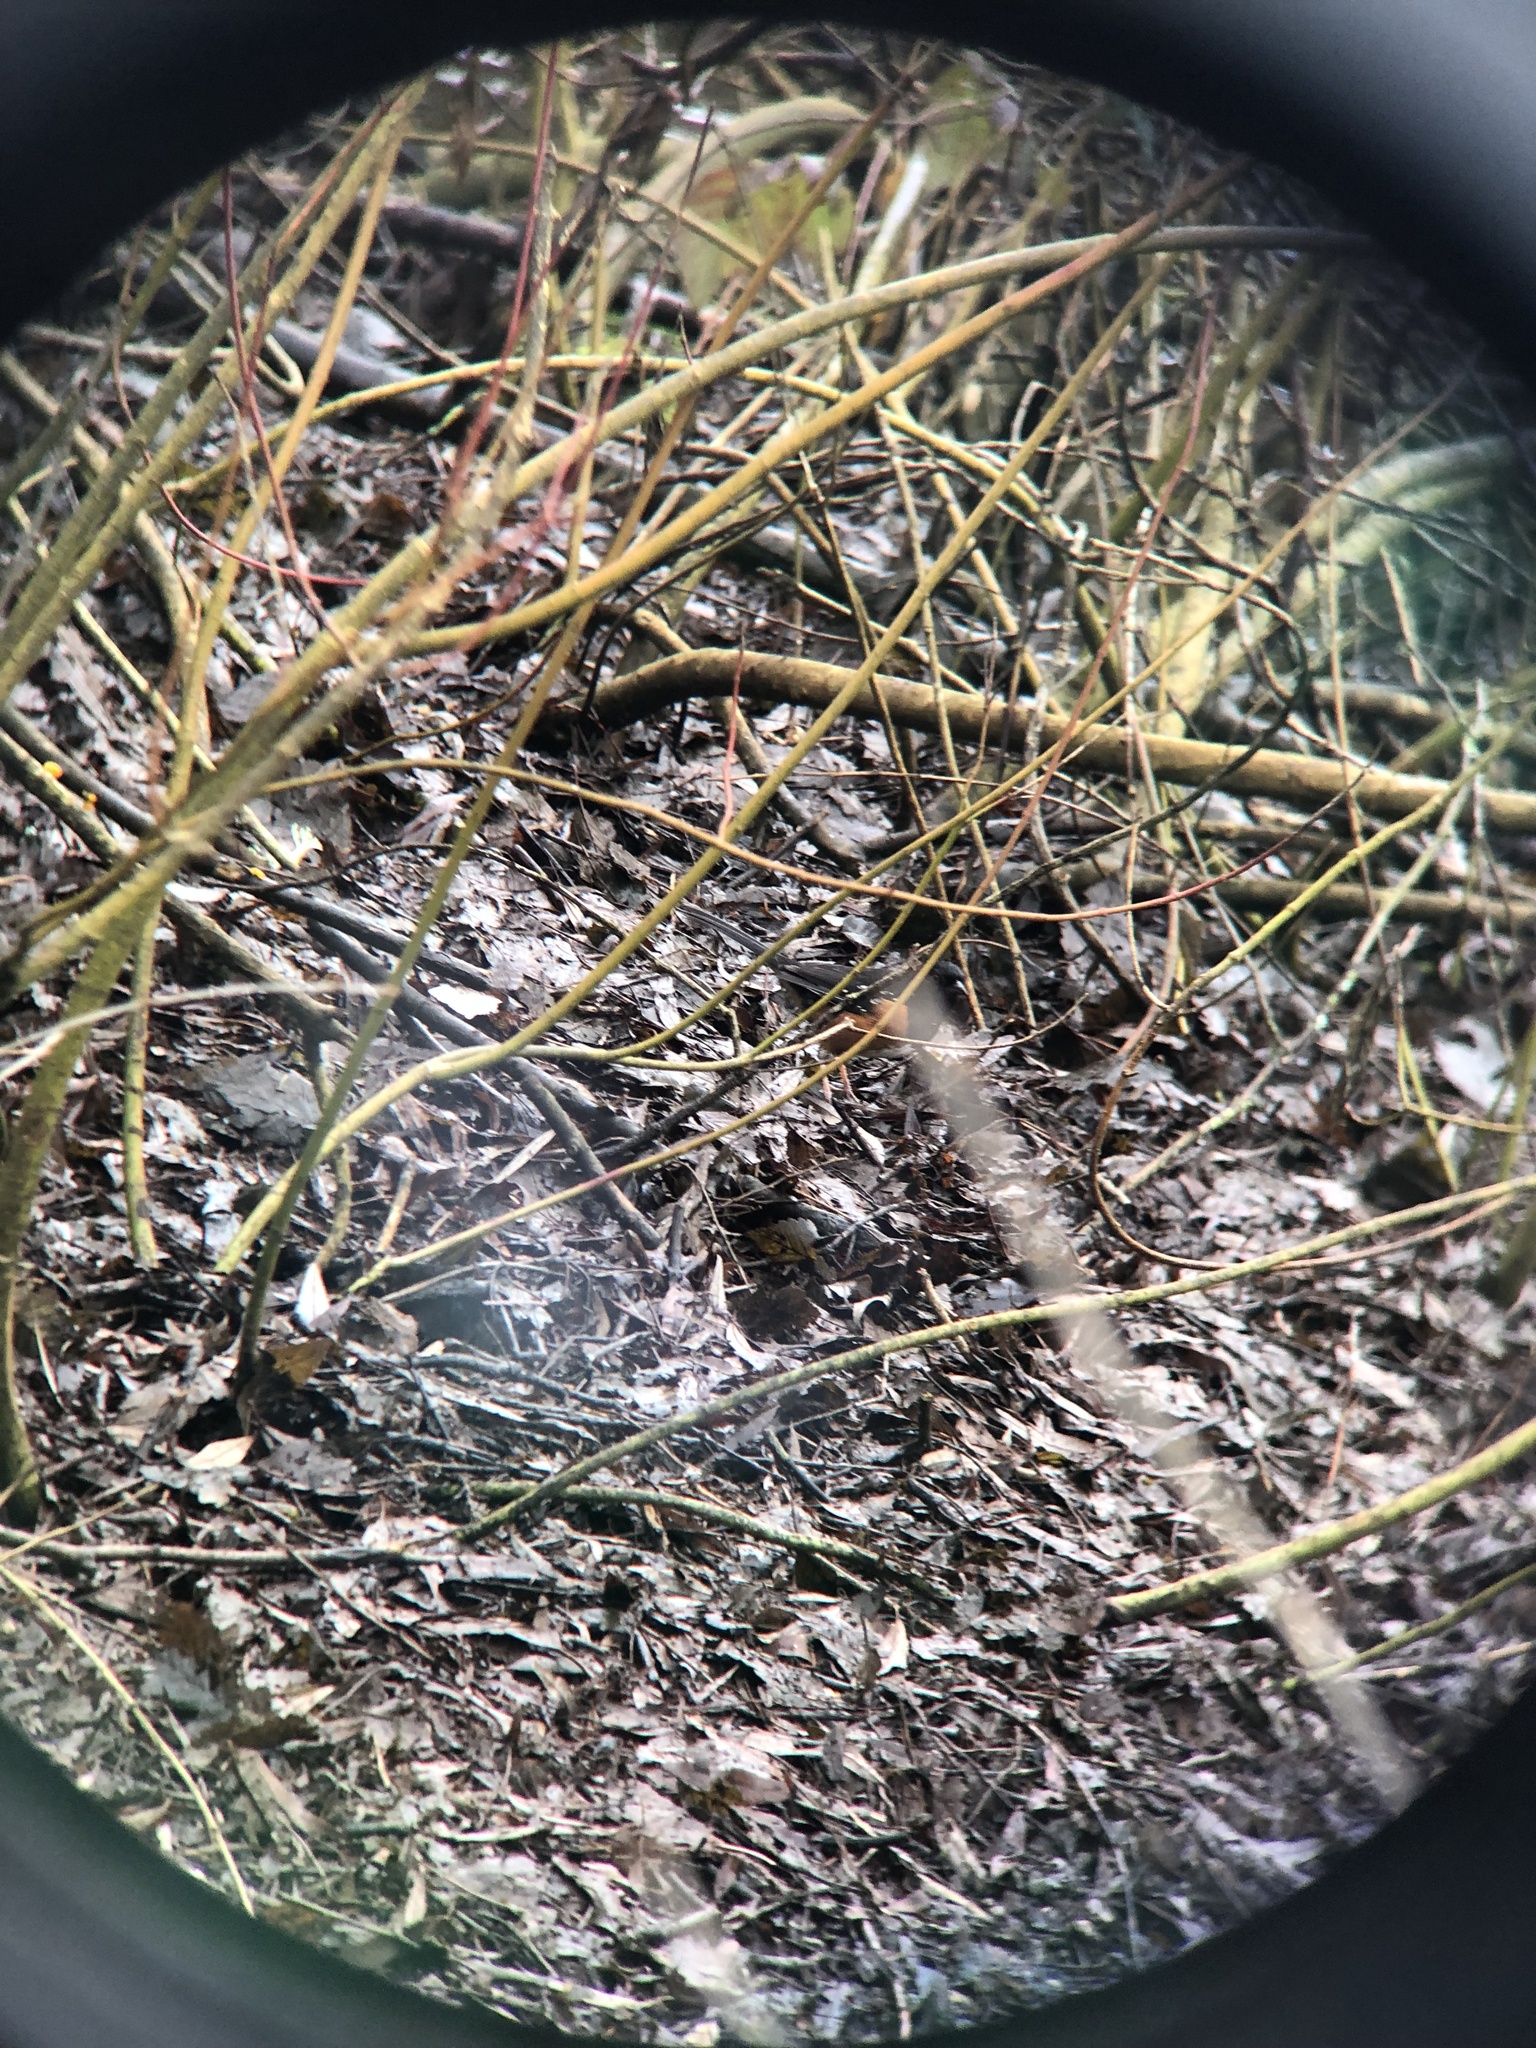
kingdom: Animalia
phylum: Chordata
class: Aves
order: Passeriformes
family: Passerellidae
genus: Pipilo
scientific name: Pipilo maculatus
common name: Spotted towhee
